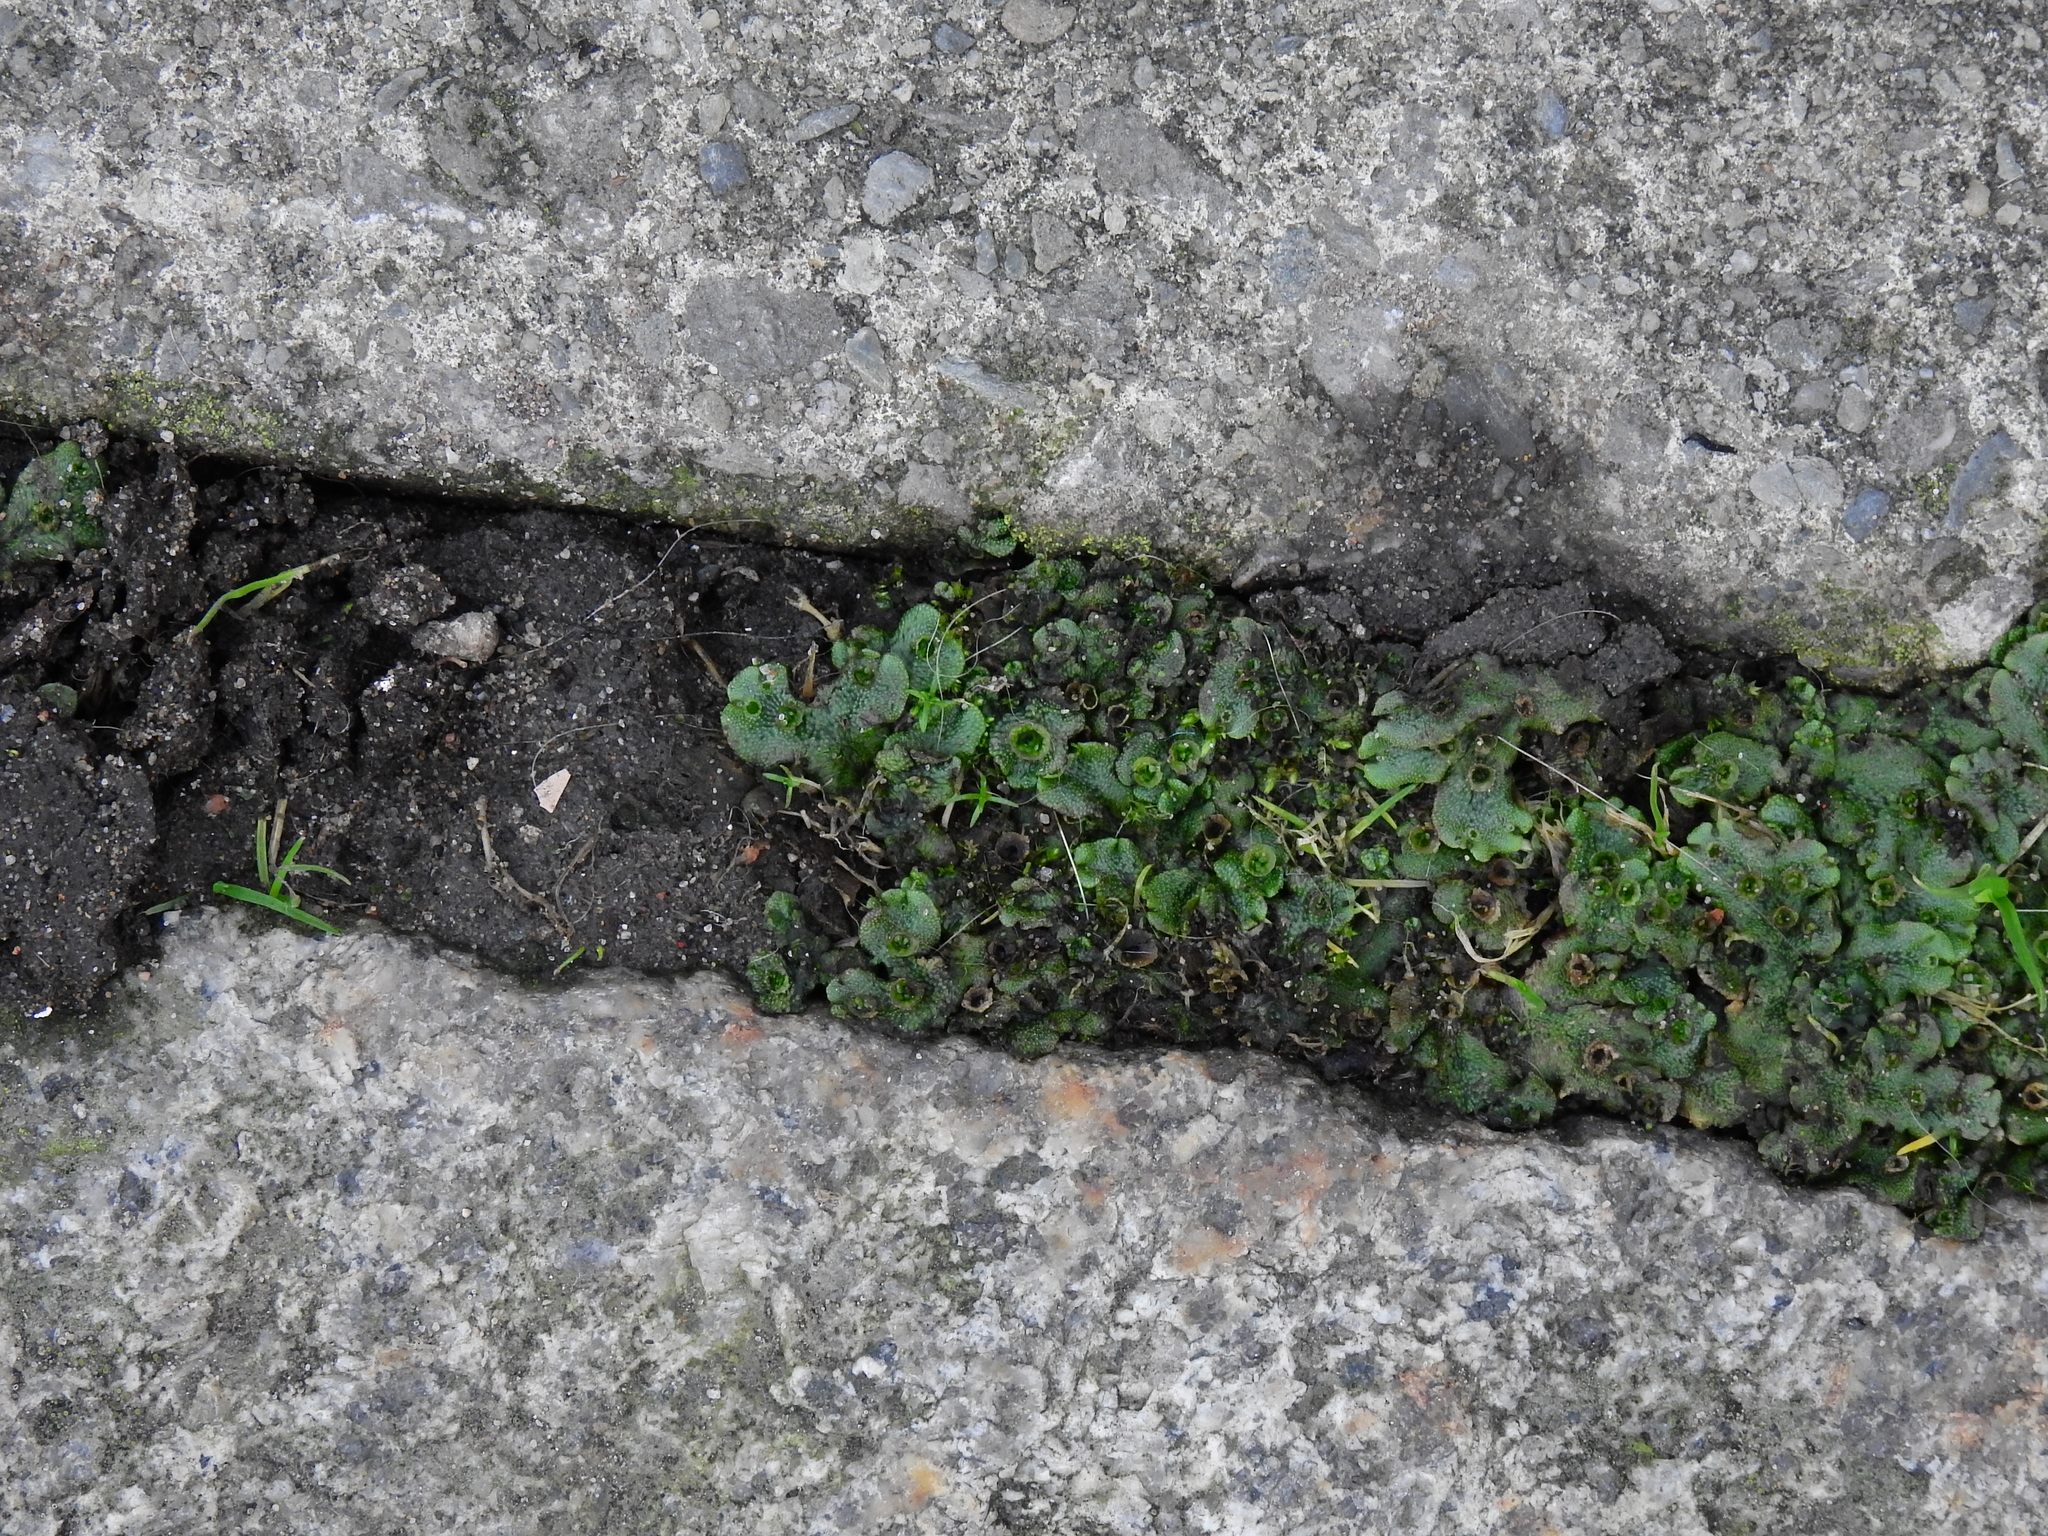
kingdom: Plantae
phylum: Marchantiophyta
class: Marchantiopsida
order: Marchantiales
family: Marchantiaceae
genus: Marchantia
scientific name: Marchantia polymorpha
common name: Common liverwort
